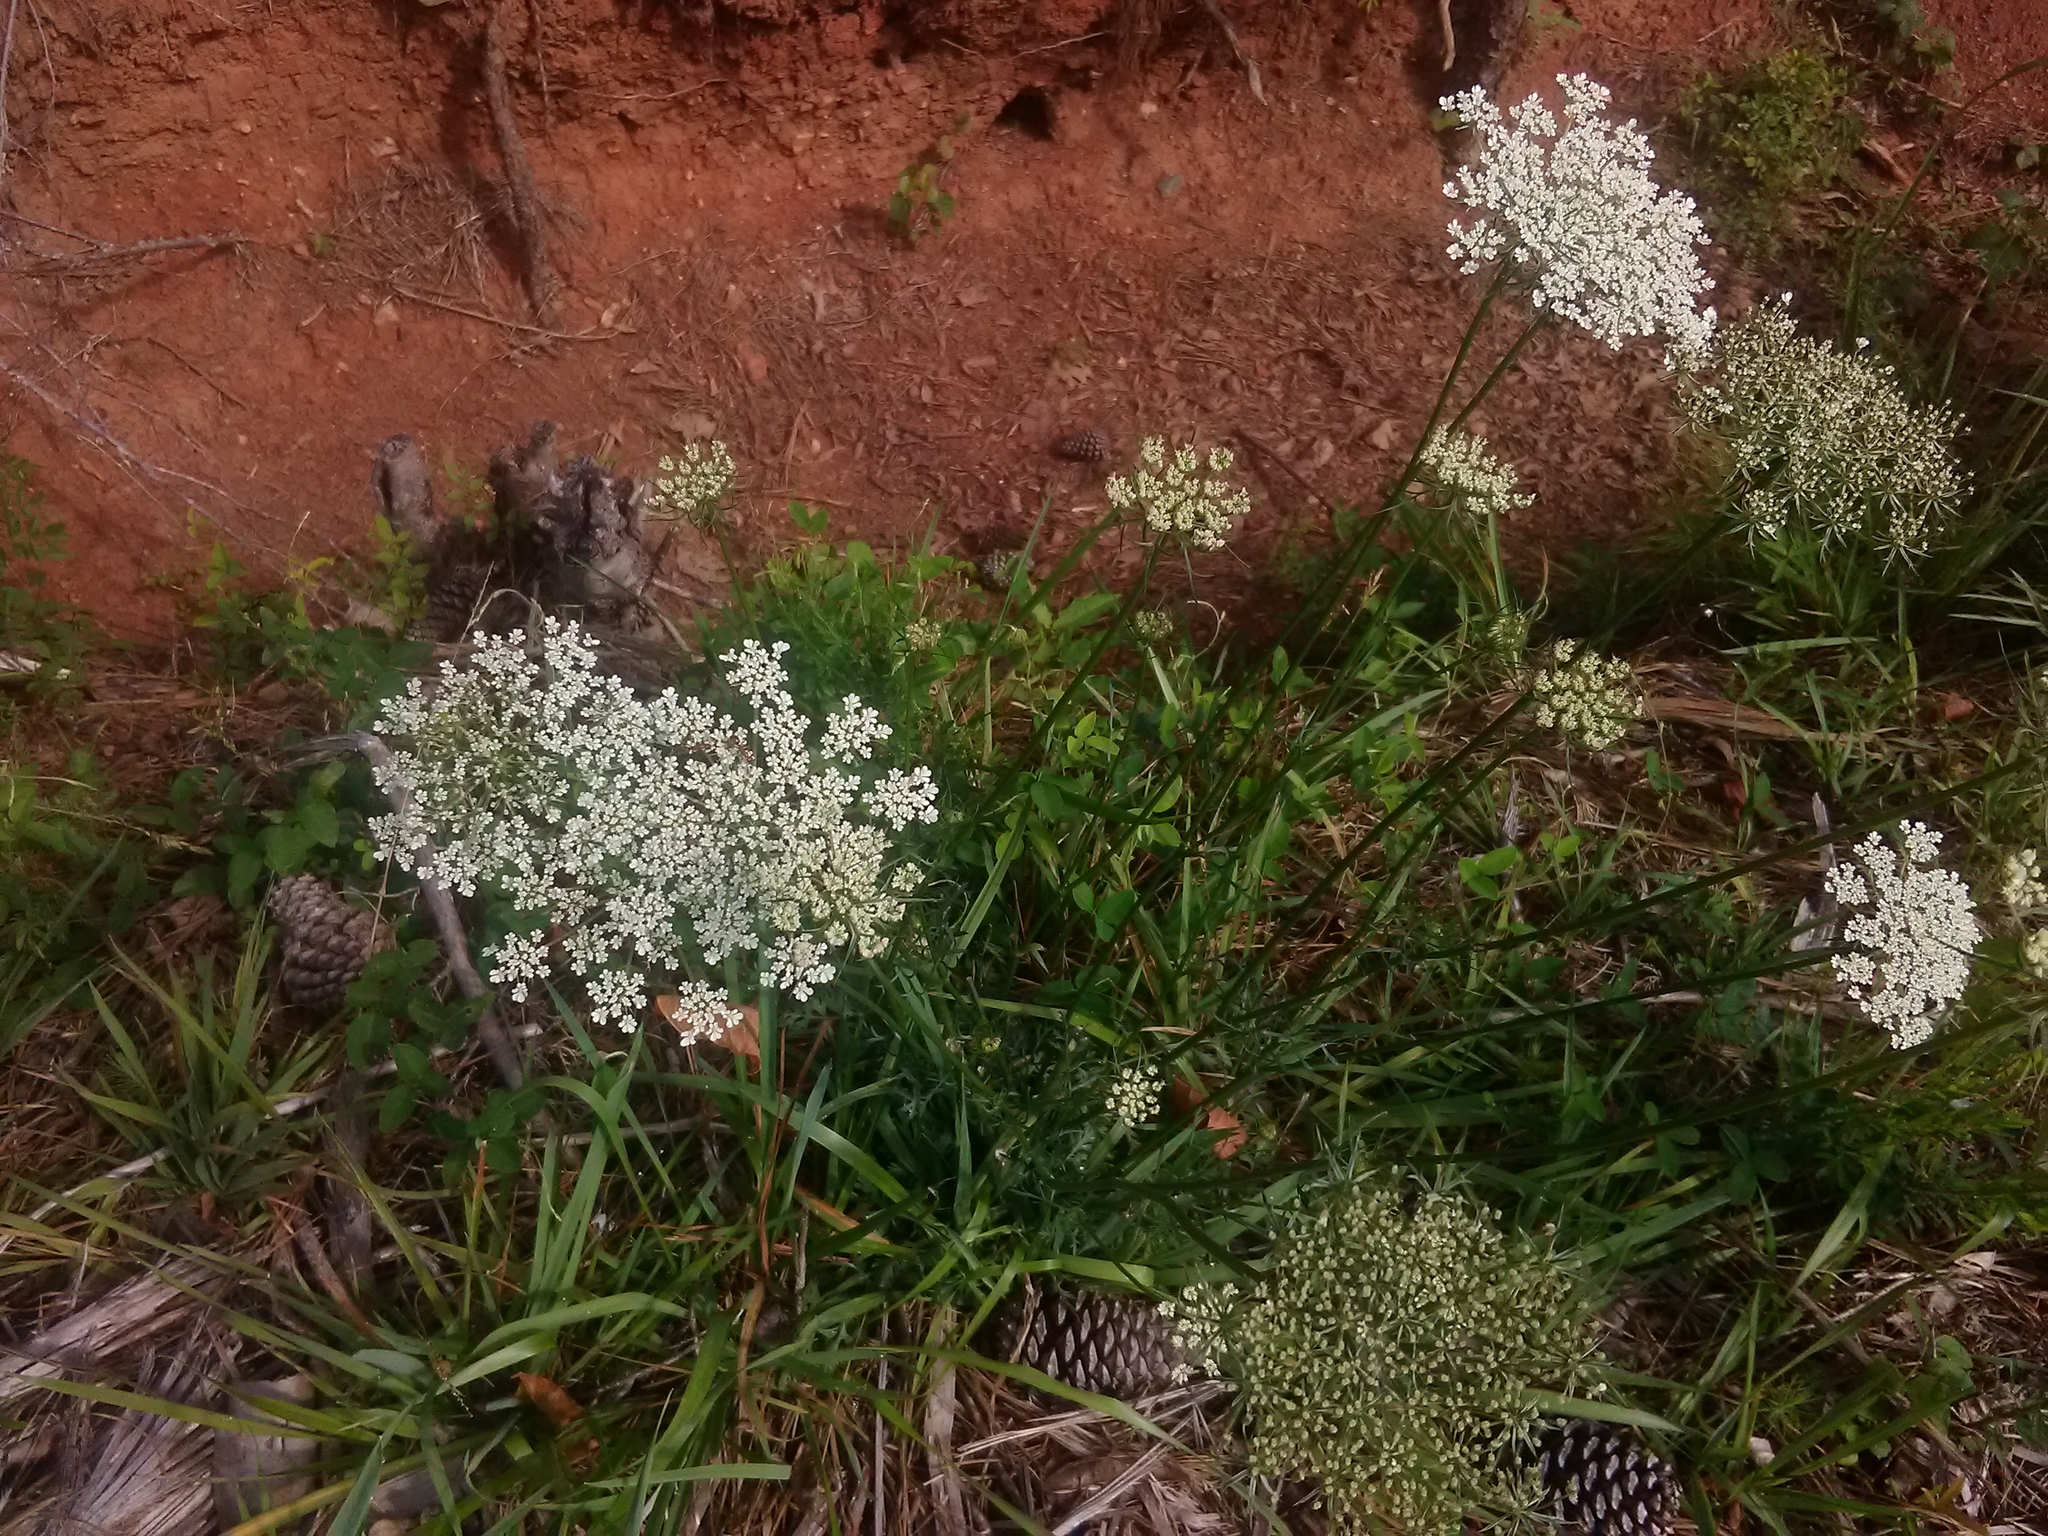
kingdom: Plantae
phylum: Tracheophyta
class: Magnoliopsida
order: Apiales
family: Apiaceae
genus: Daucus
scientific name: Daucus carota
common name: Wild carrot
